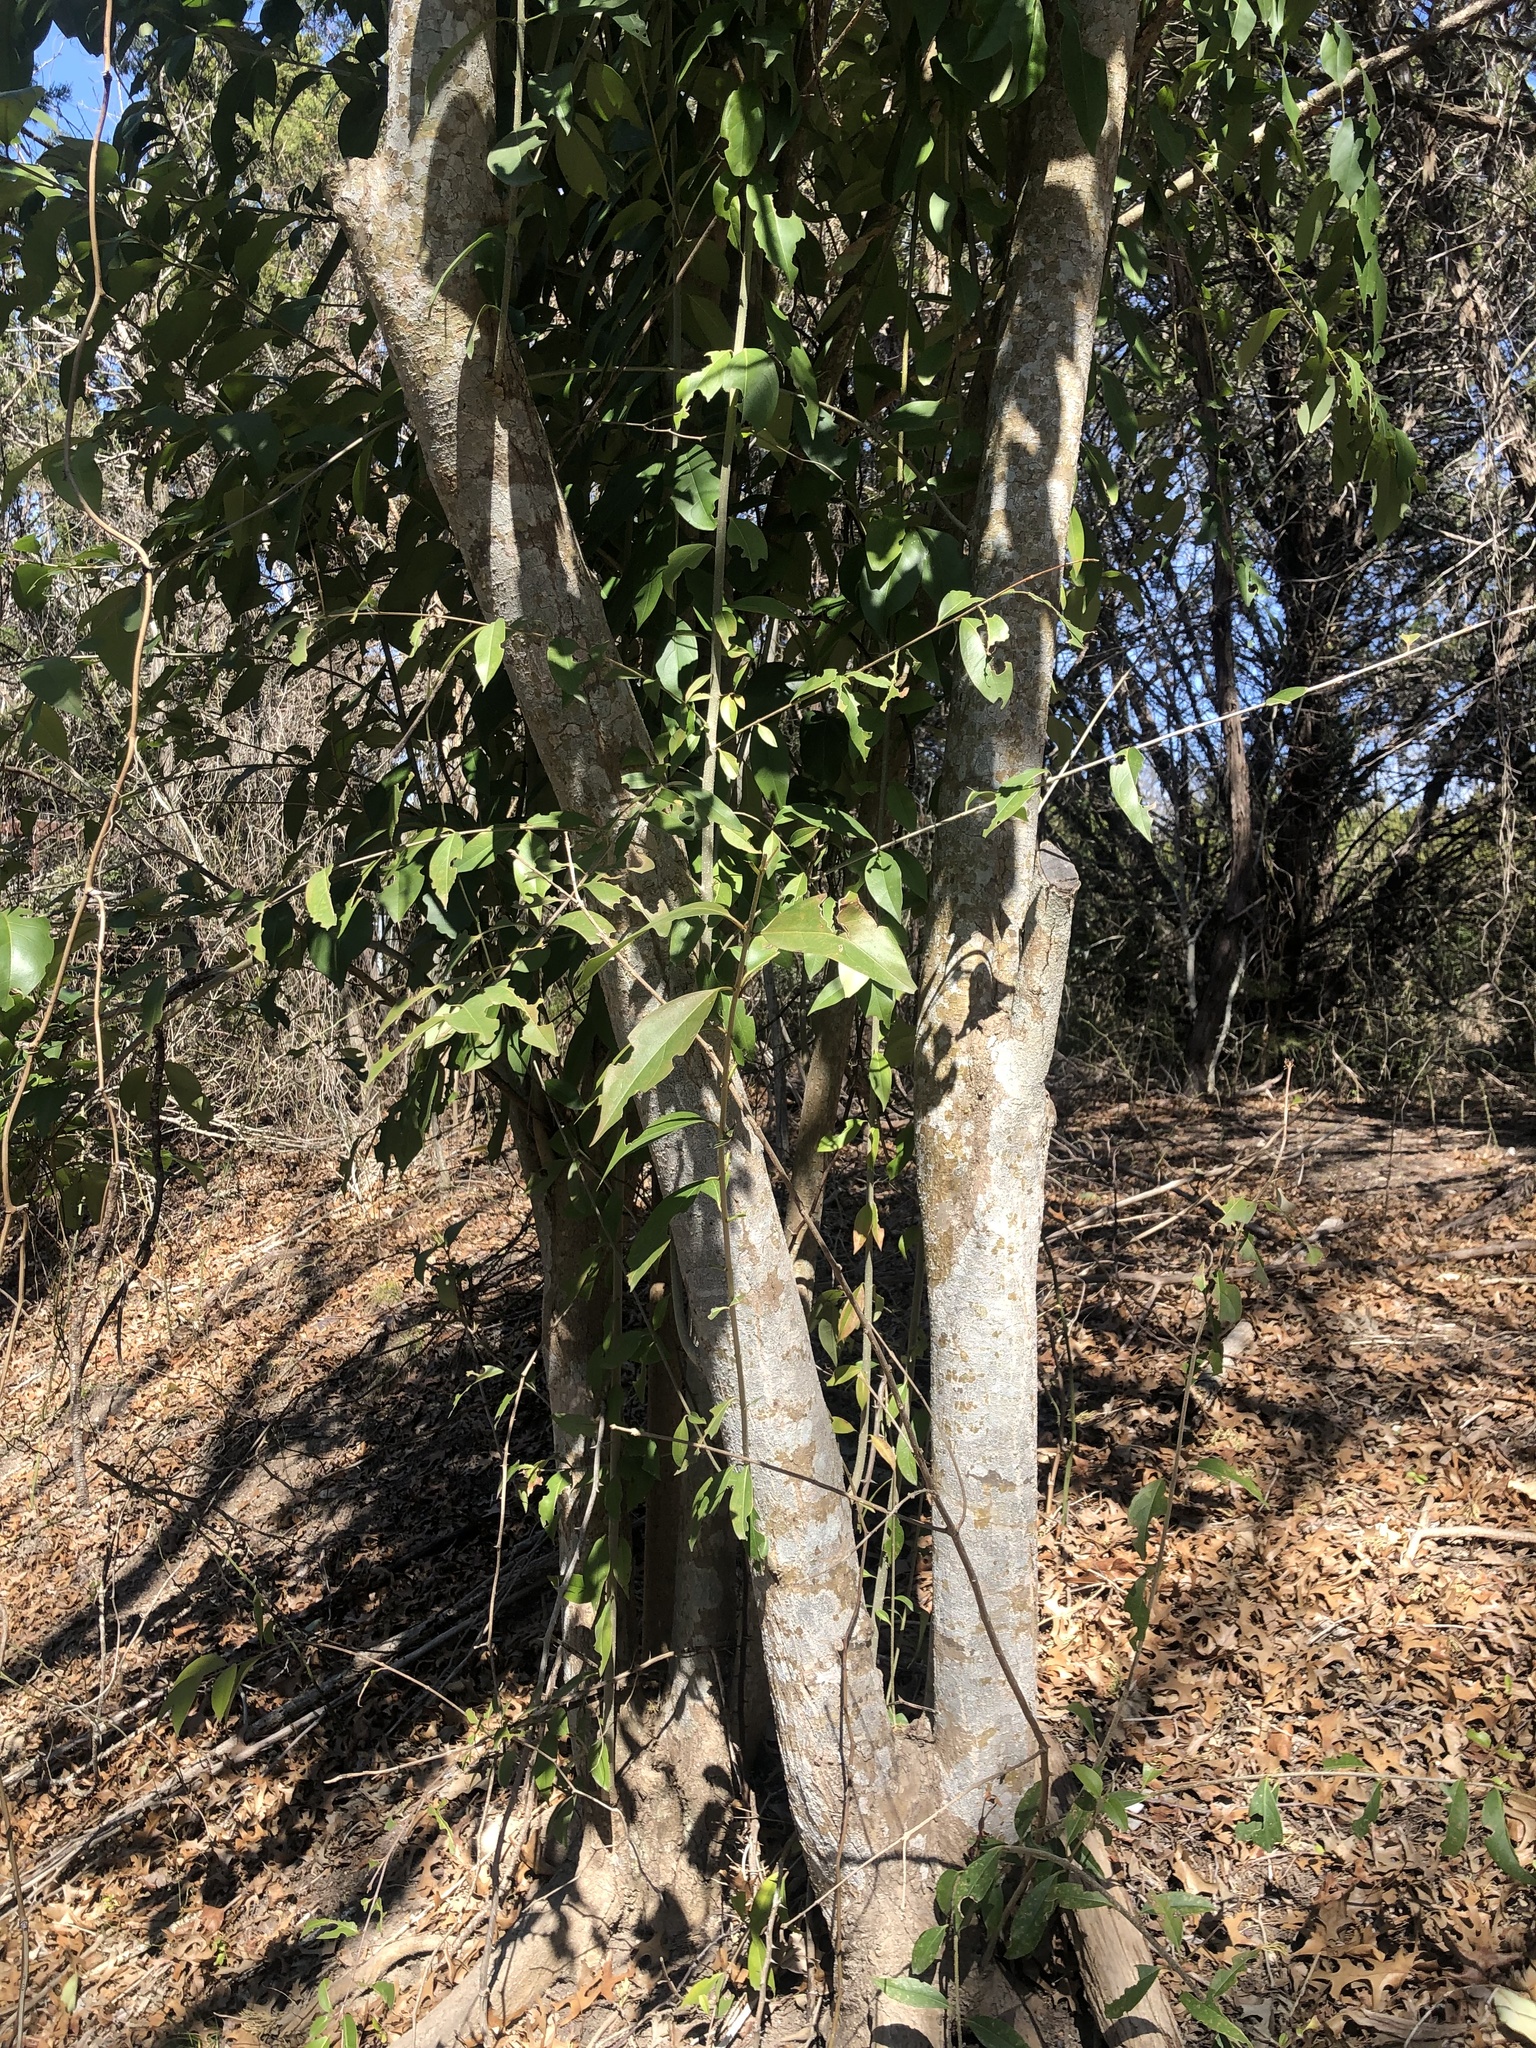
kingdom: Plantae
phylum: Tracheophyta
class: Magnoliopsida
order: Lamiales
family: Oleaceae
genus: Ligustrum
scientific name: Ligustrum lucidum
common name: Glossy privet
